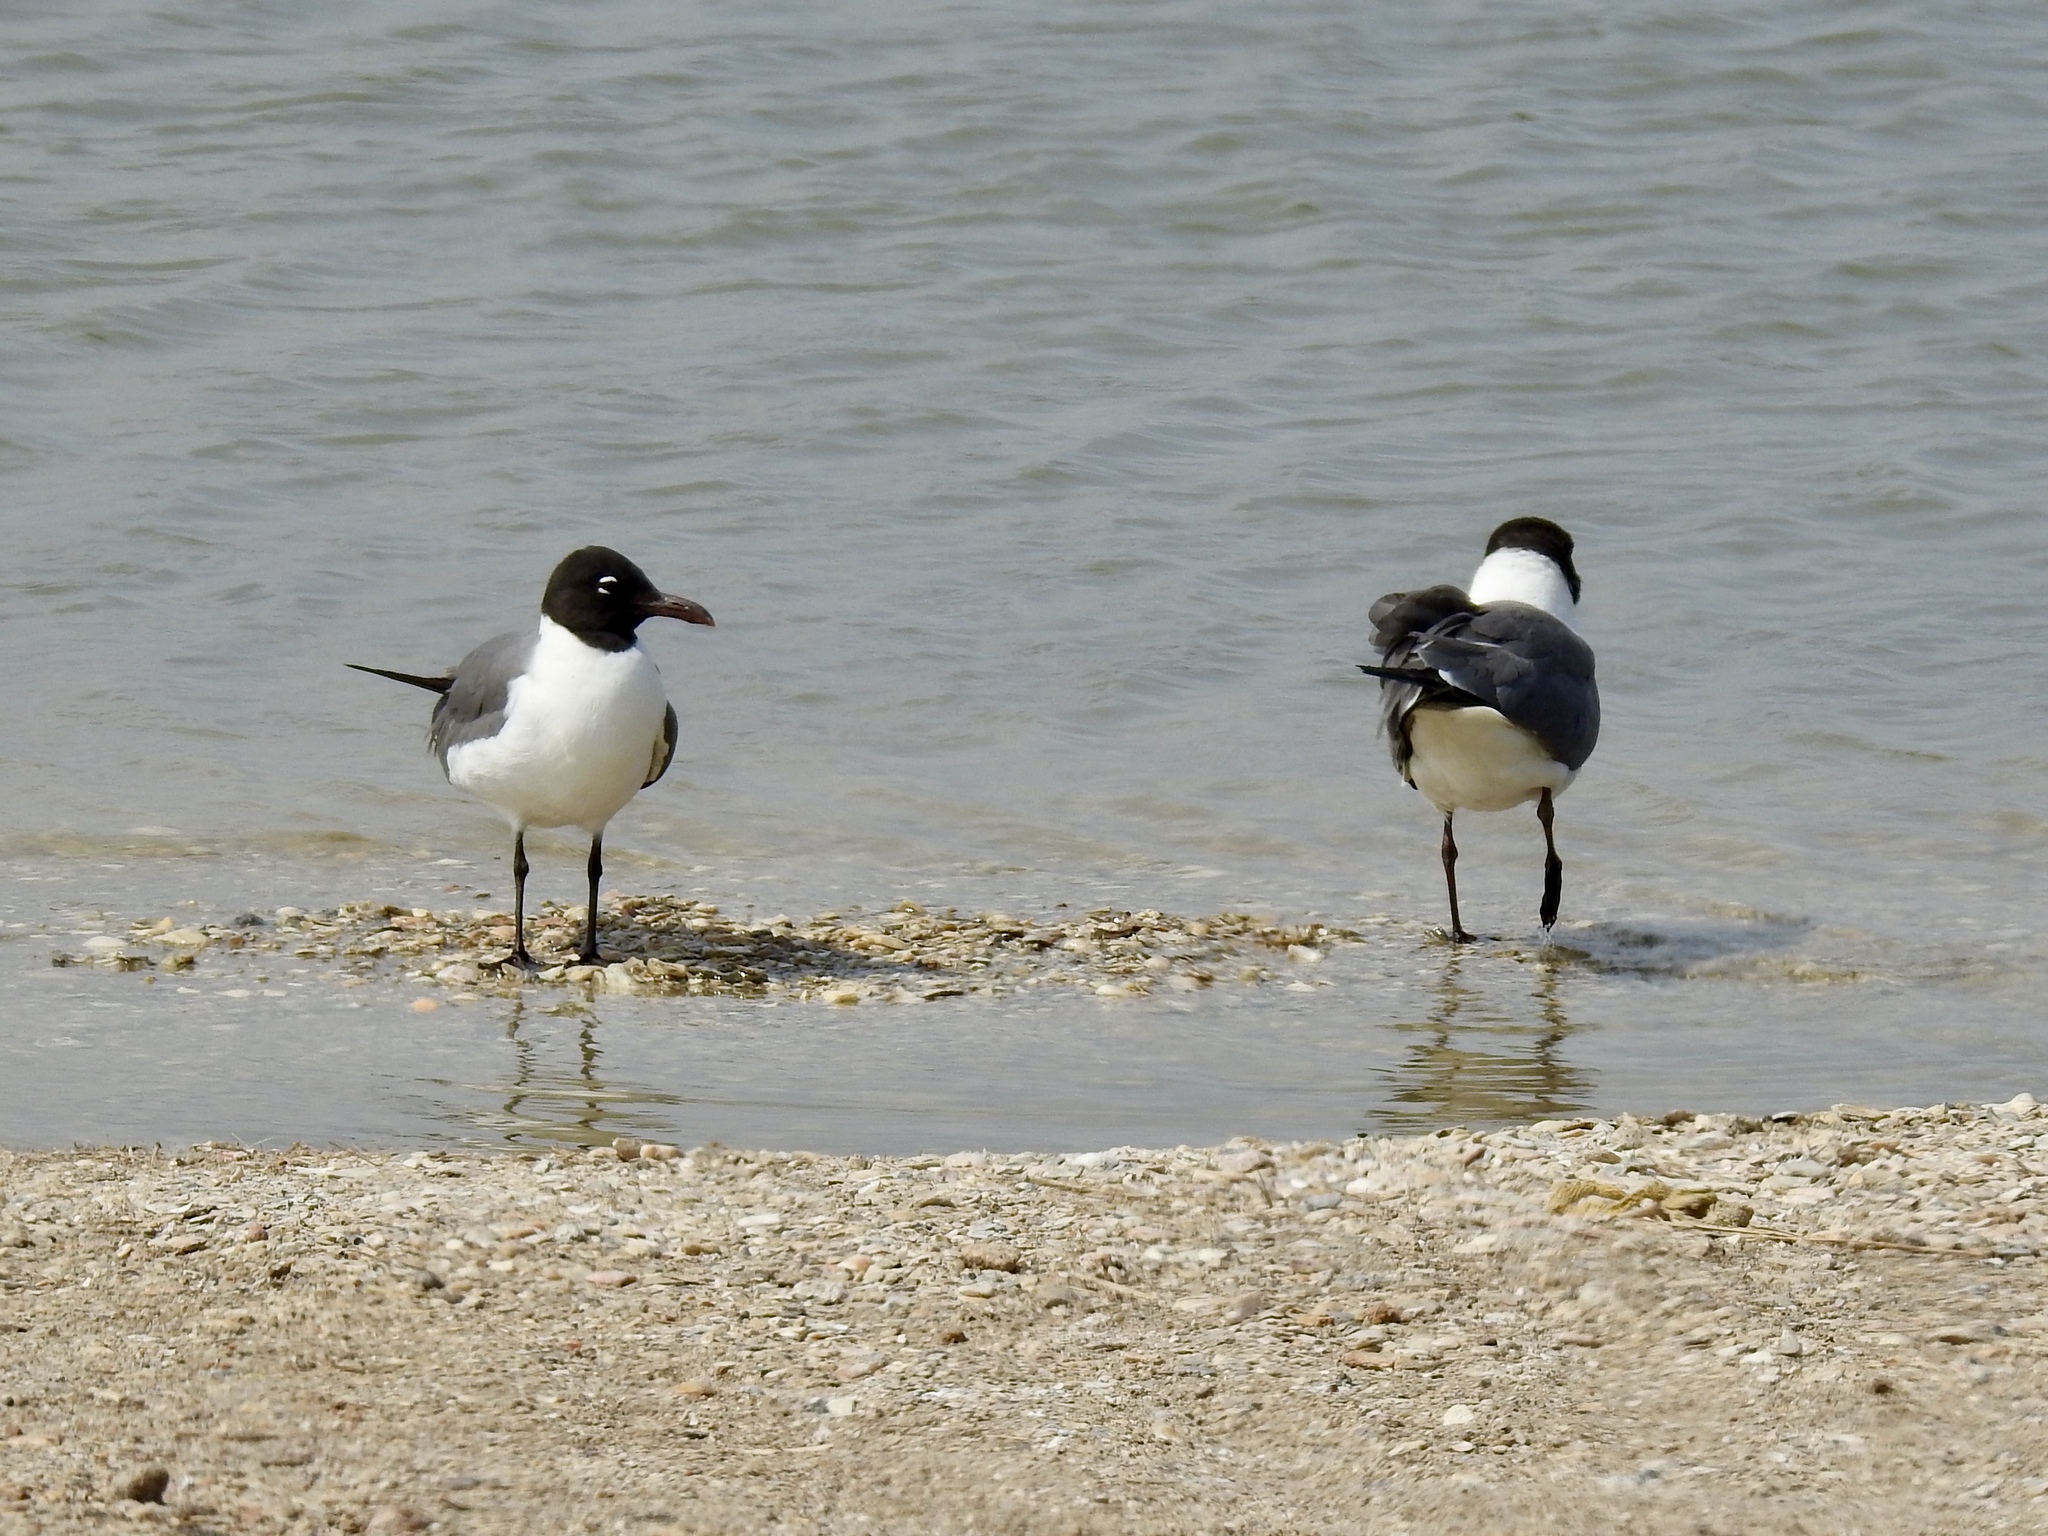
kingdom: Animalia
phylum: Chordata
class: Aves
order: Charadriiformes
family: Laridae
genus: Leucophaeus
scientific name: Leucophaeus atricilla
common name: Laughing gull
